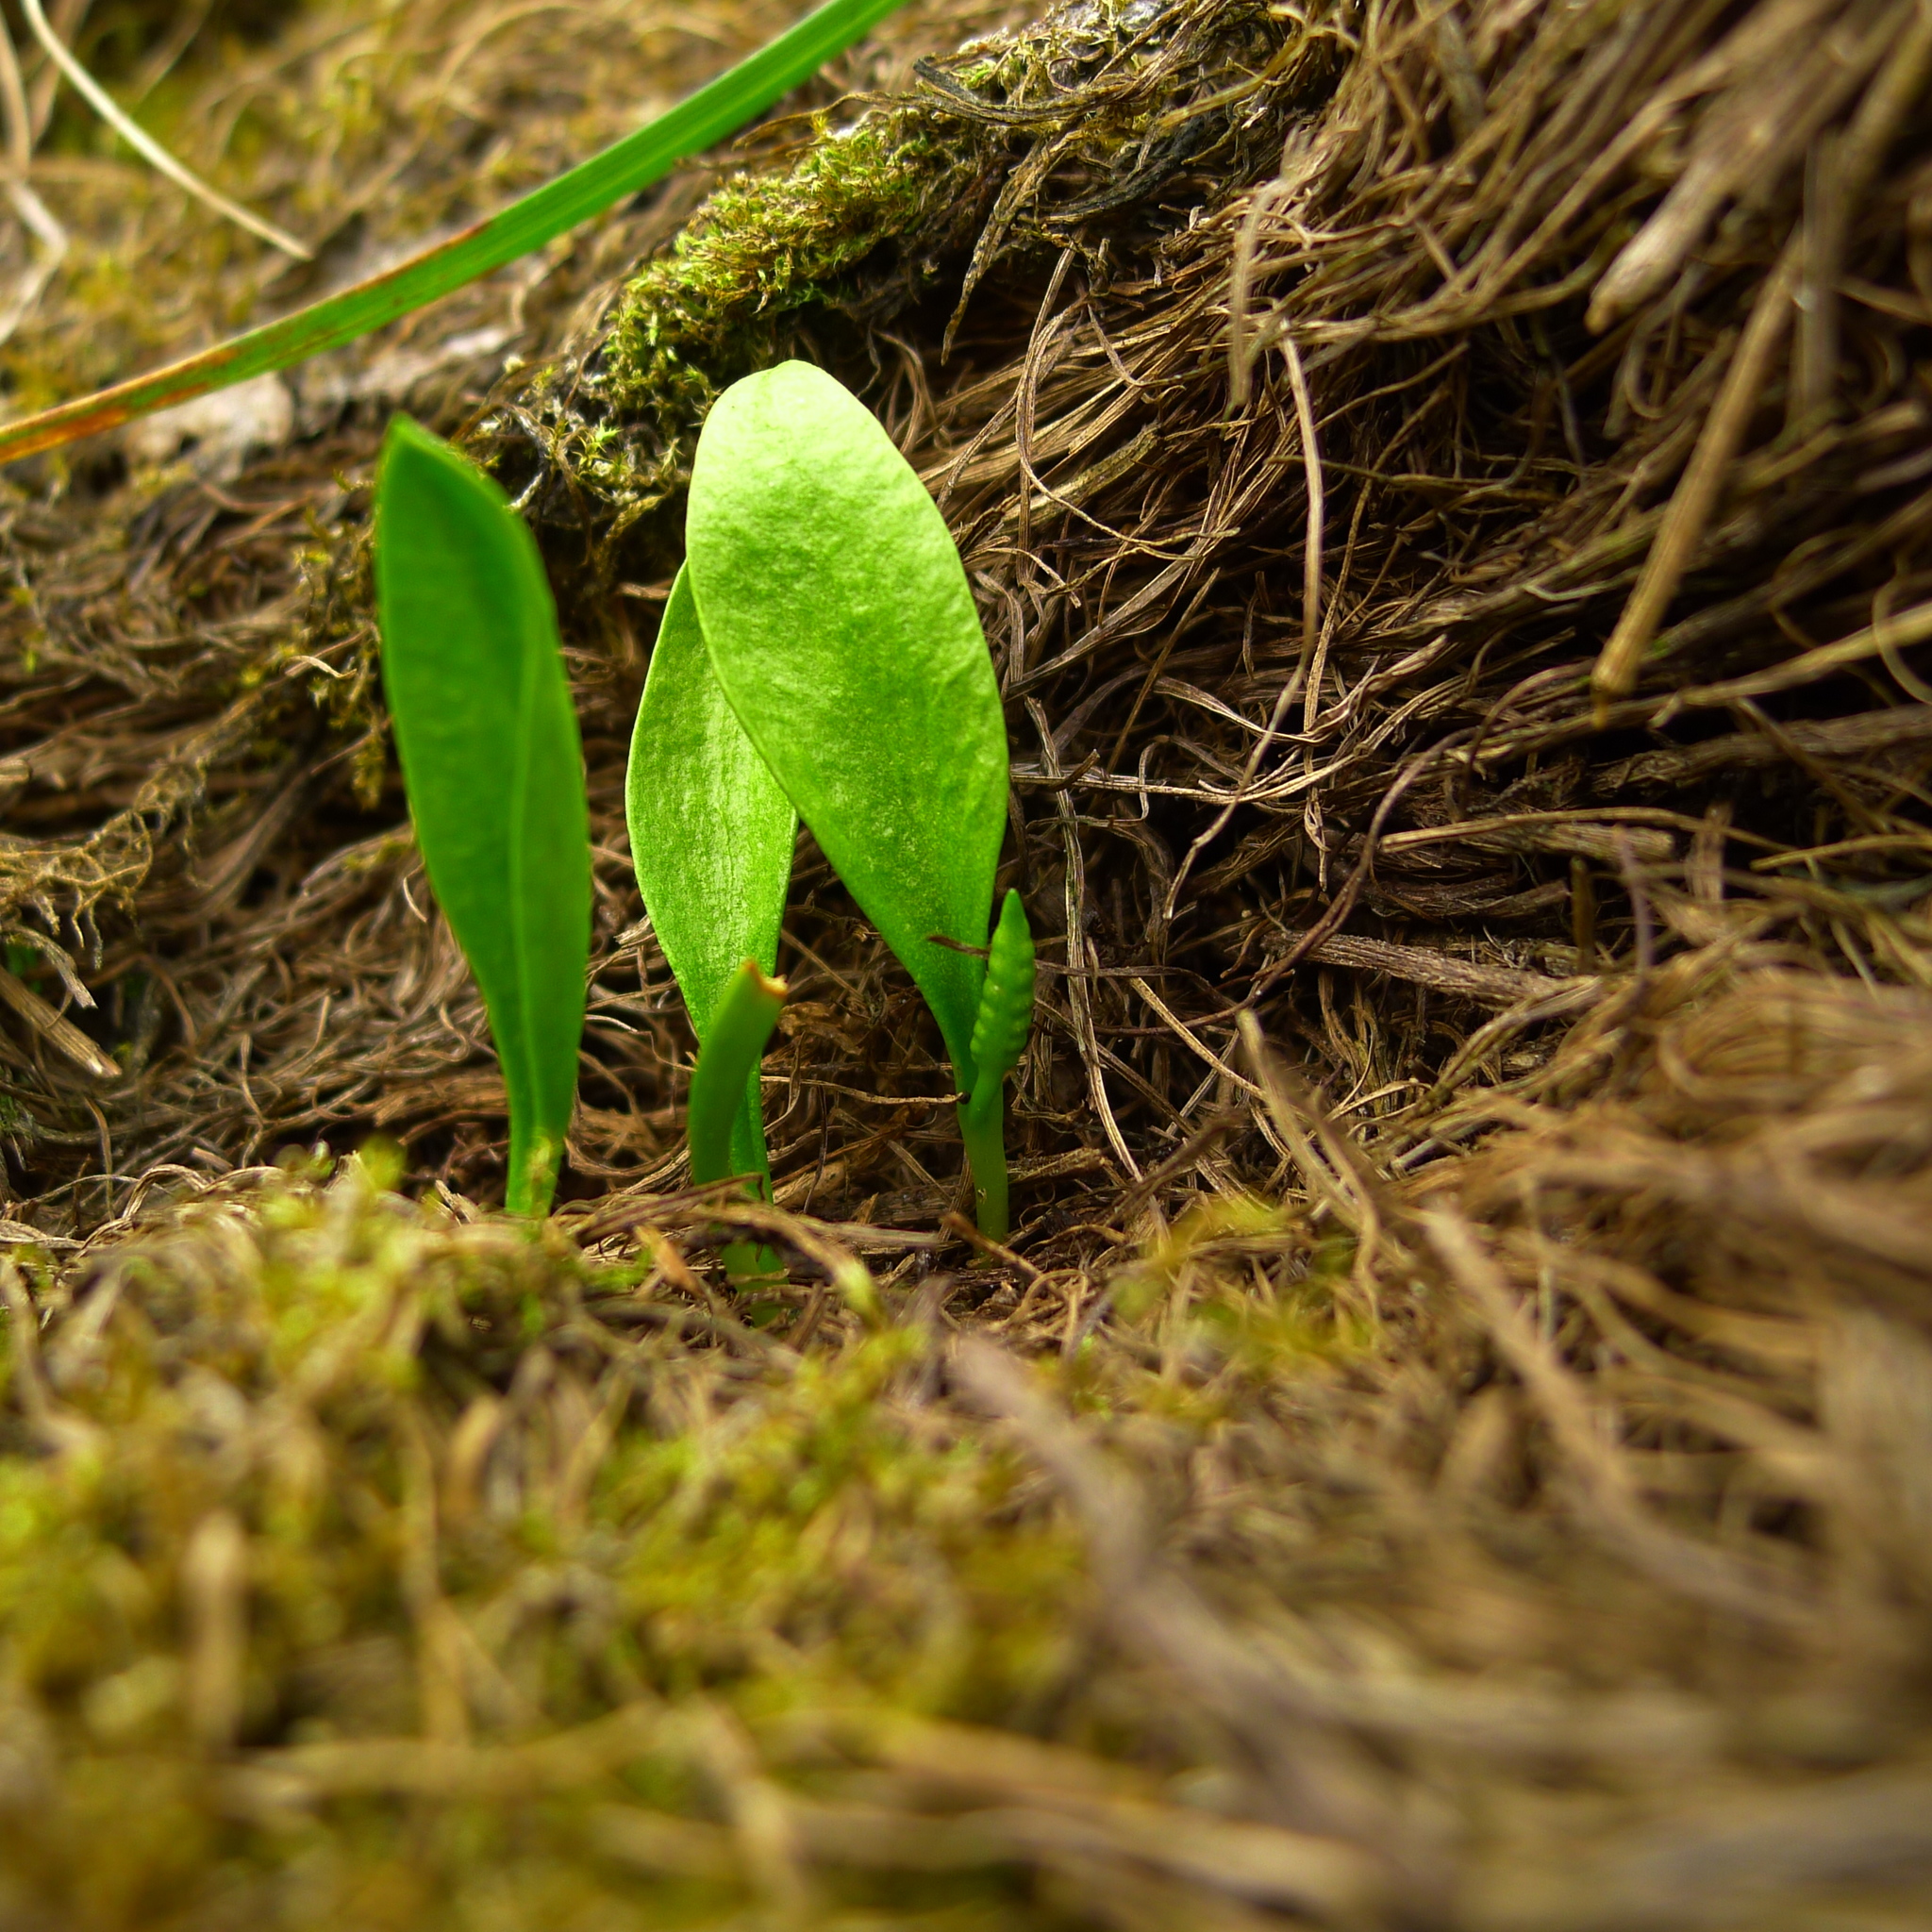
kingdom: Plantae
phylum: Tracheophyta
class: Polypodiopsida
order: Ophioglossales
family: Ophioglossaceae
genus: Ophioglossum
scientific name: Ophioglossum coriaceum
